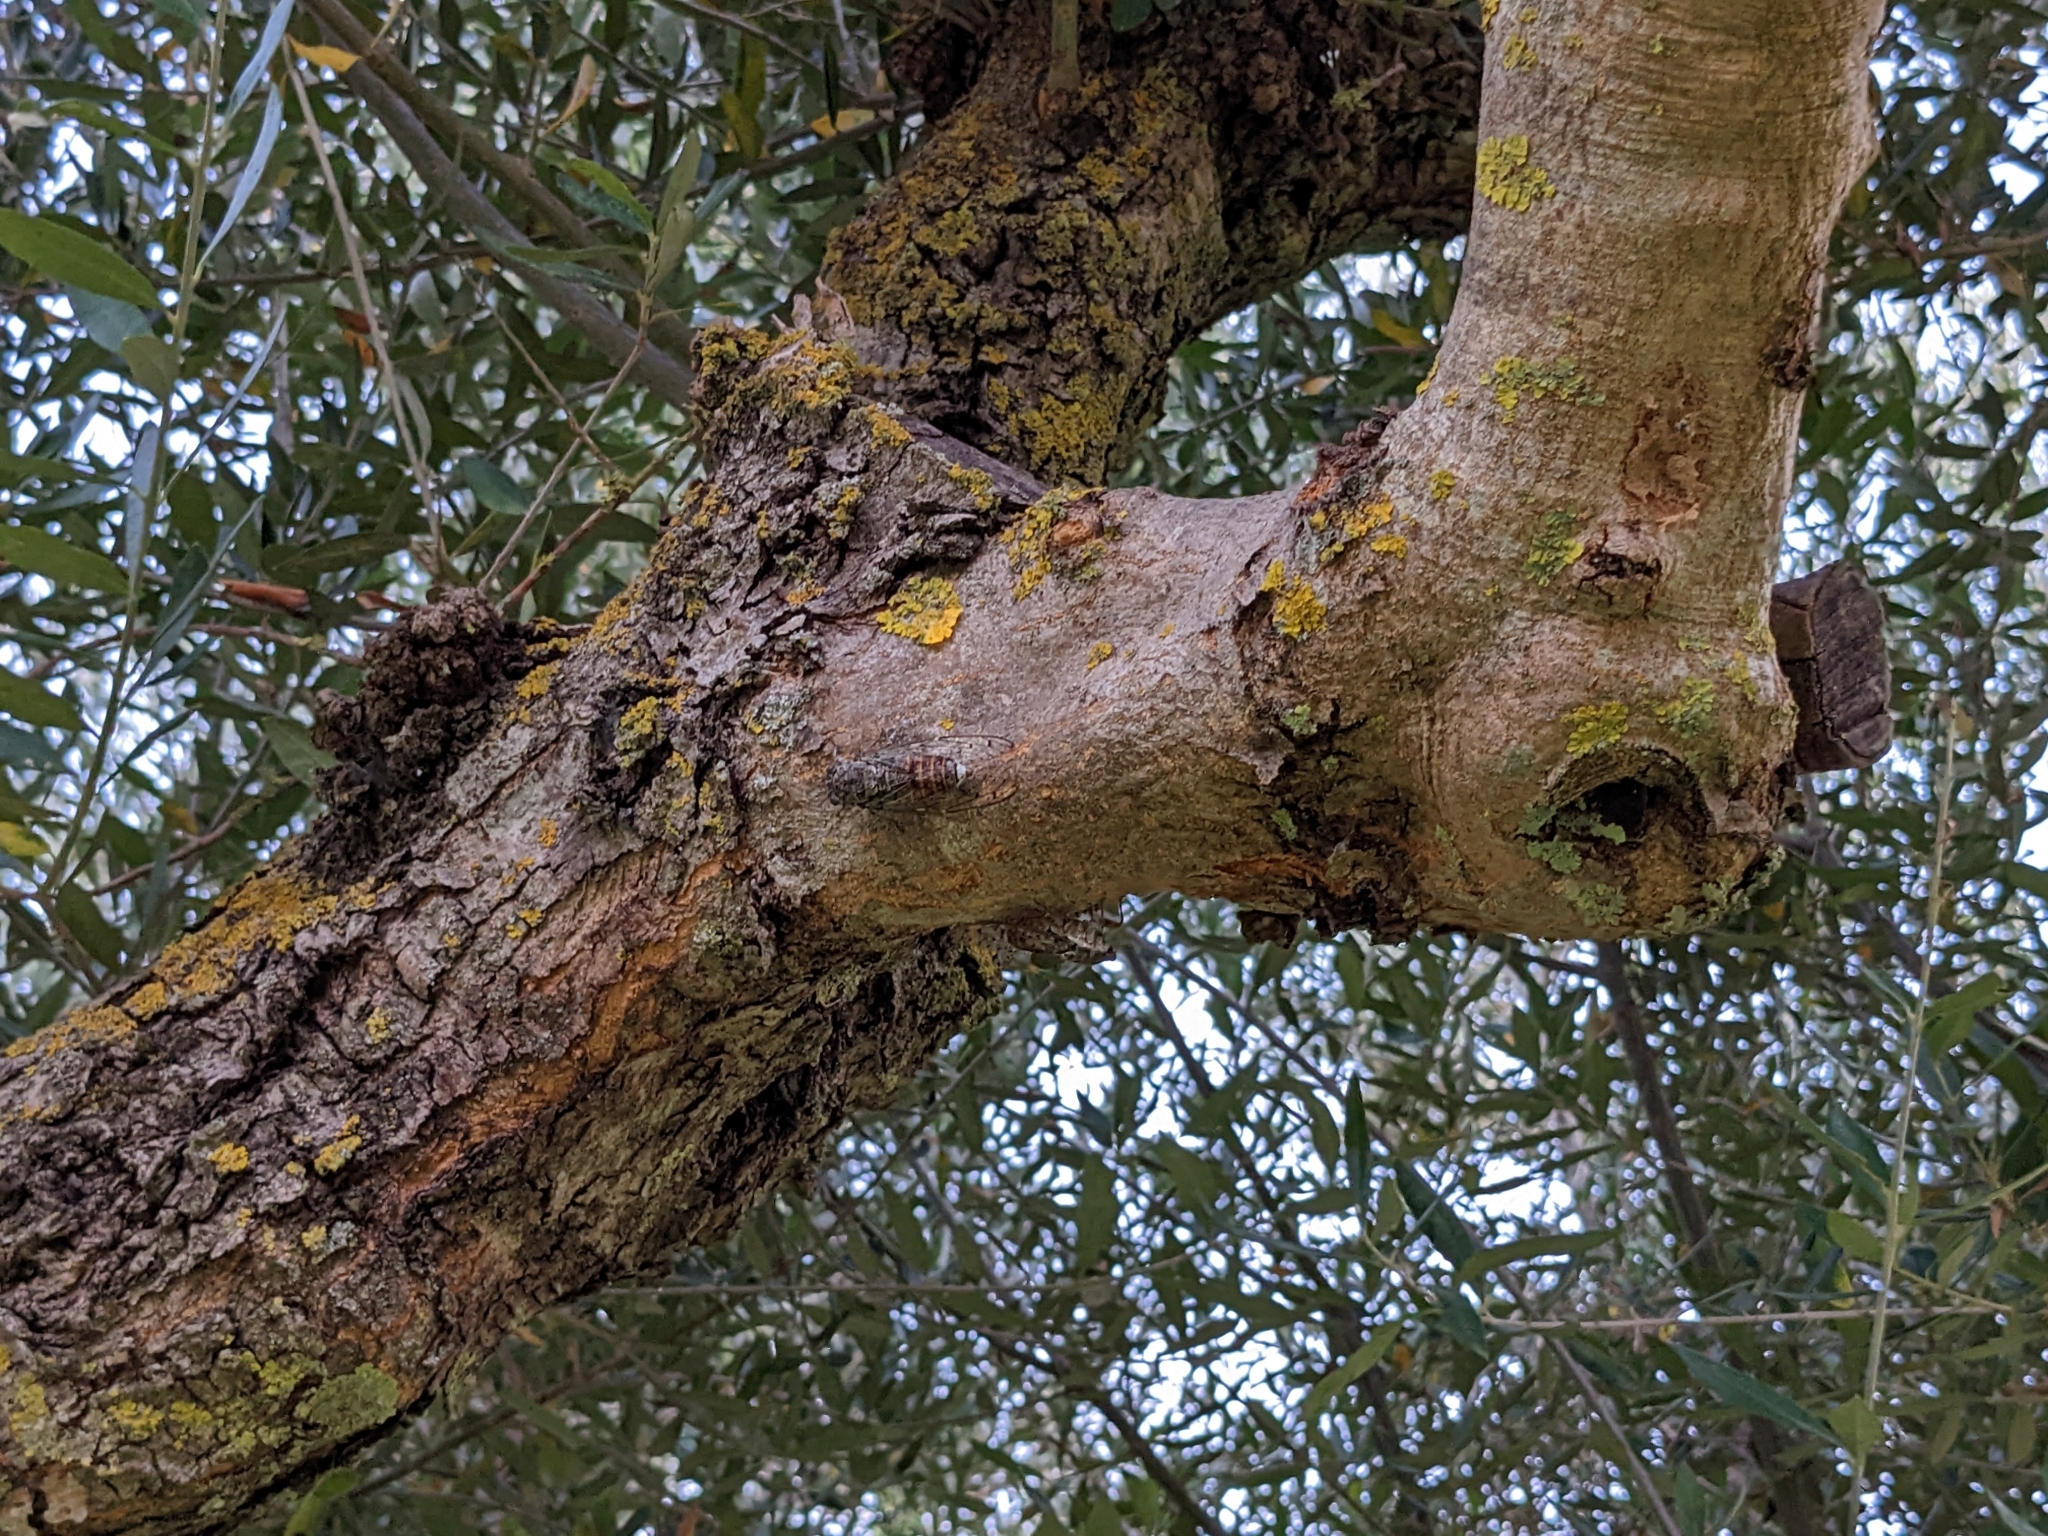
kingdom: Animalia
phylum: Arthropoda
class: Insecta
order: Hemiptera
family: Cicadidae
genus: Cicada
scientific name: Cicada orni
